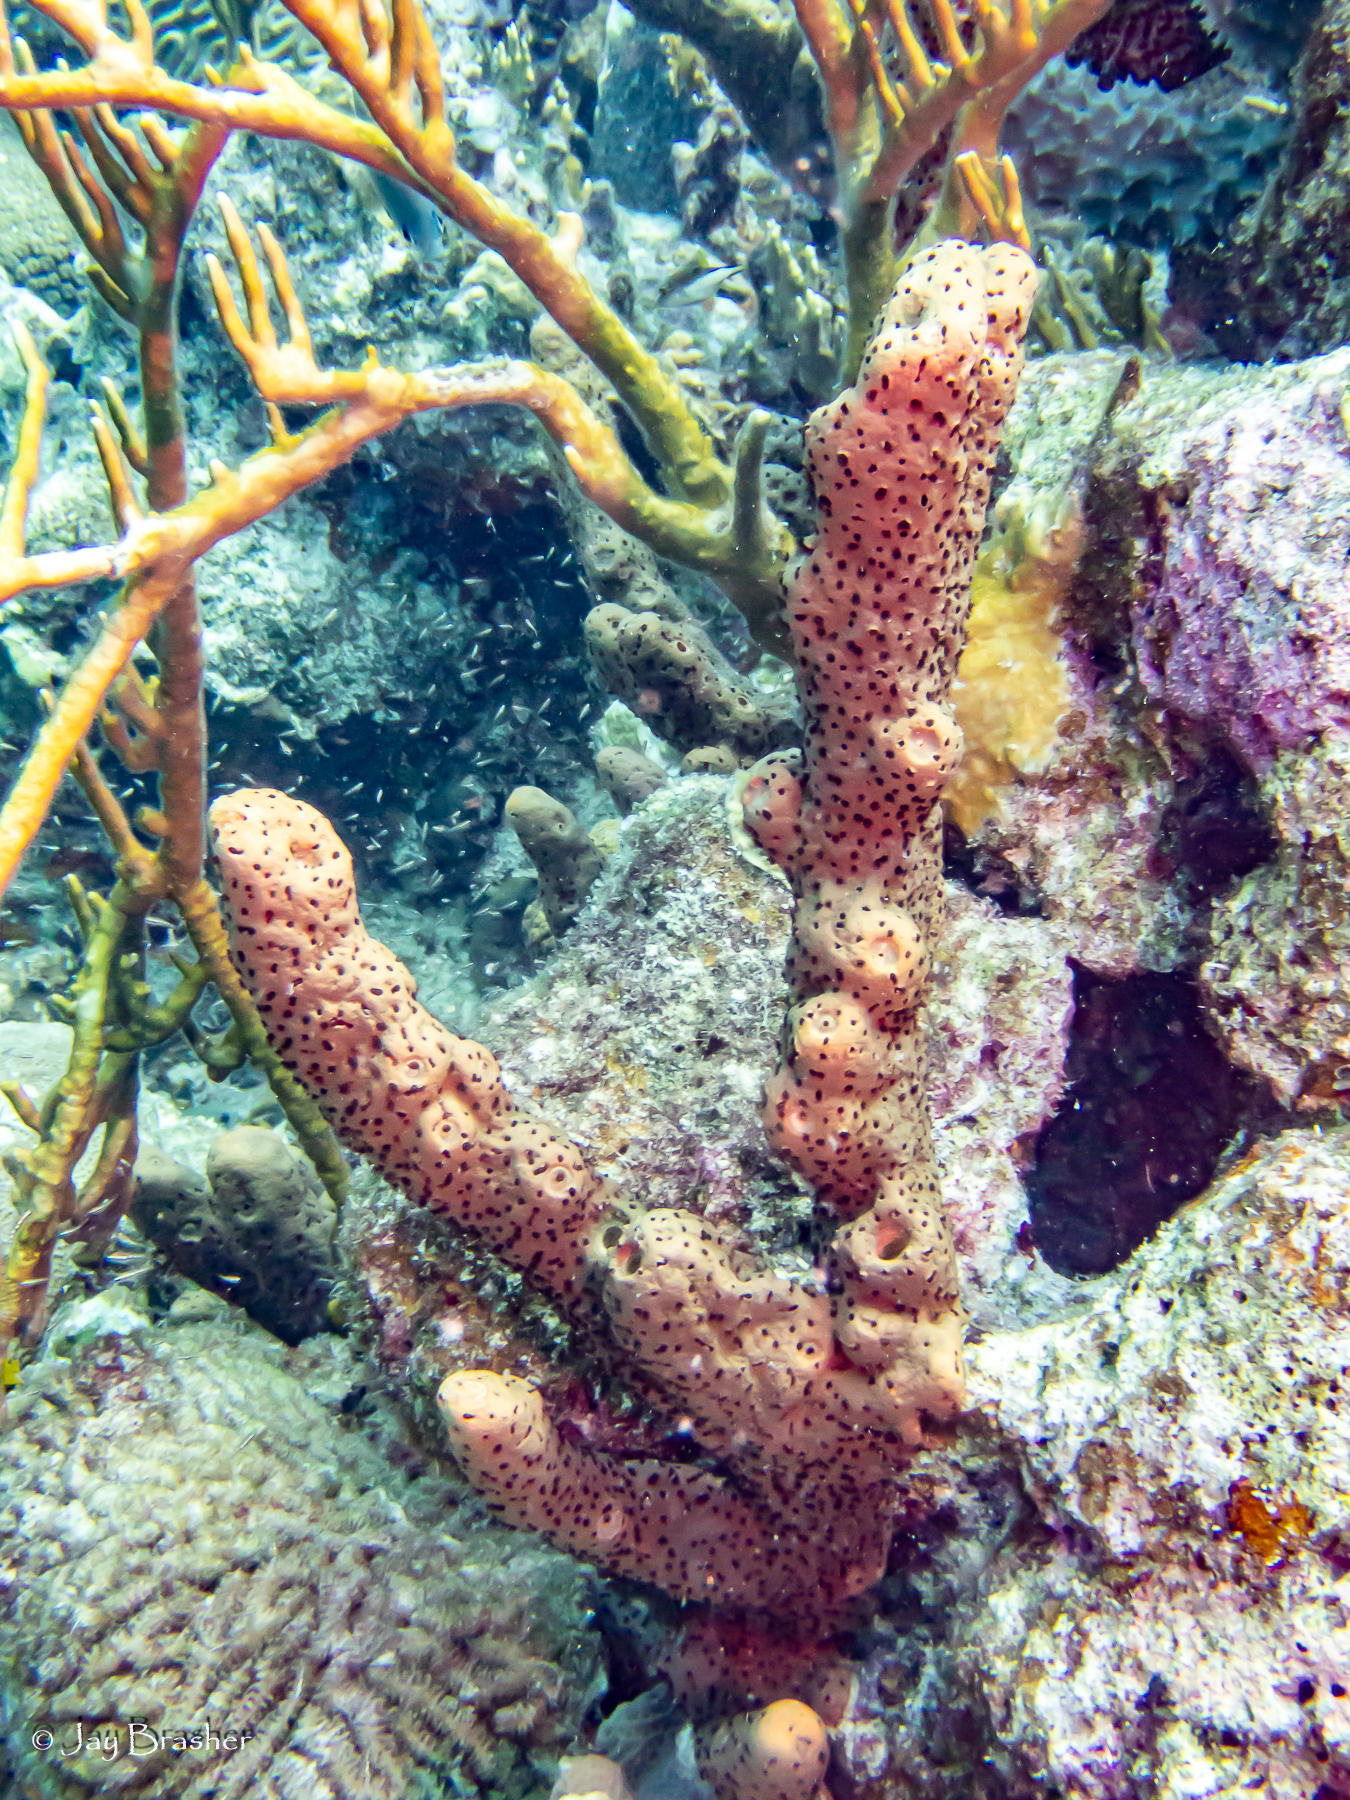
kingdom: Animalia
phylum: Porifera
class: Demospongiae
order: Agelasida
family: Agelasidae
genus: Agelas
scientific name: Agelas conifera
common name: Brown tube sponge
